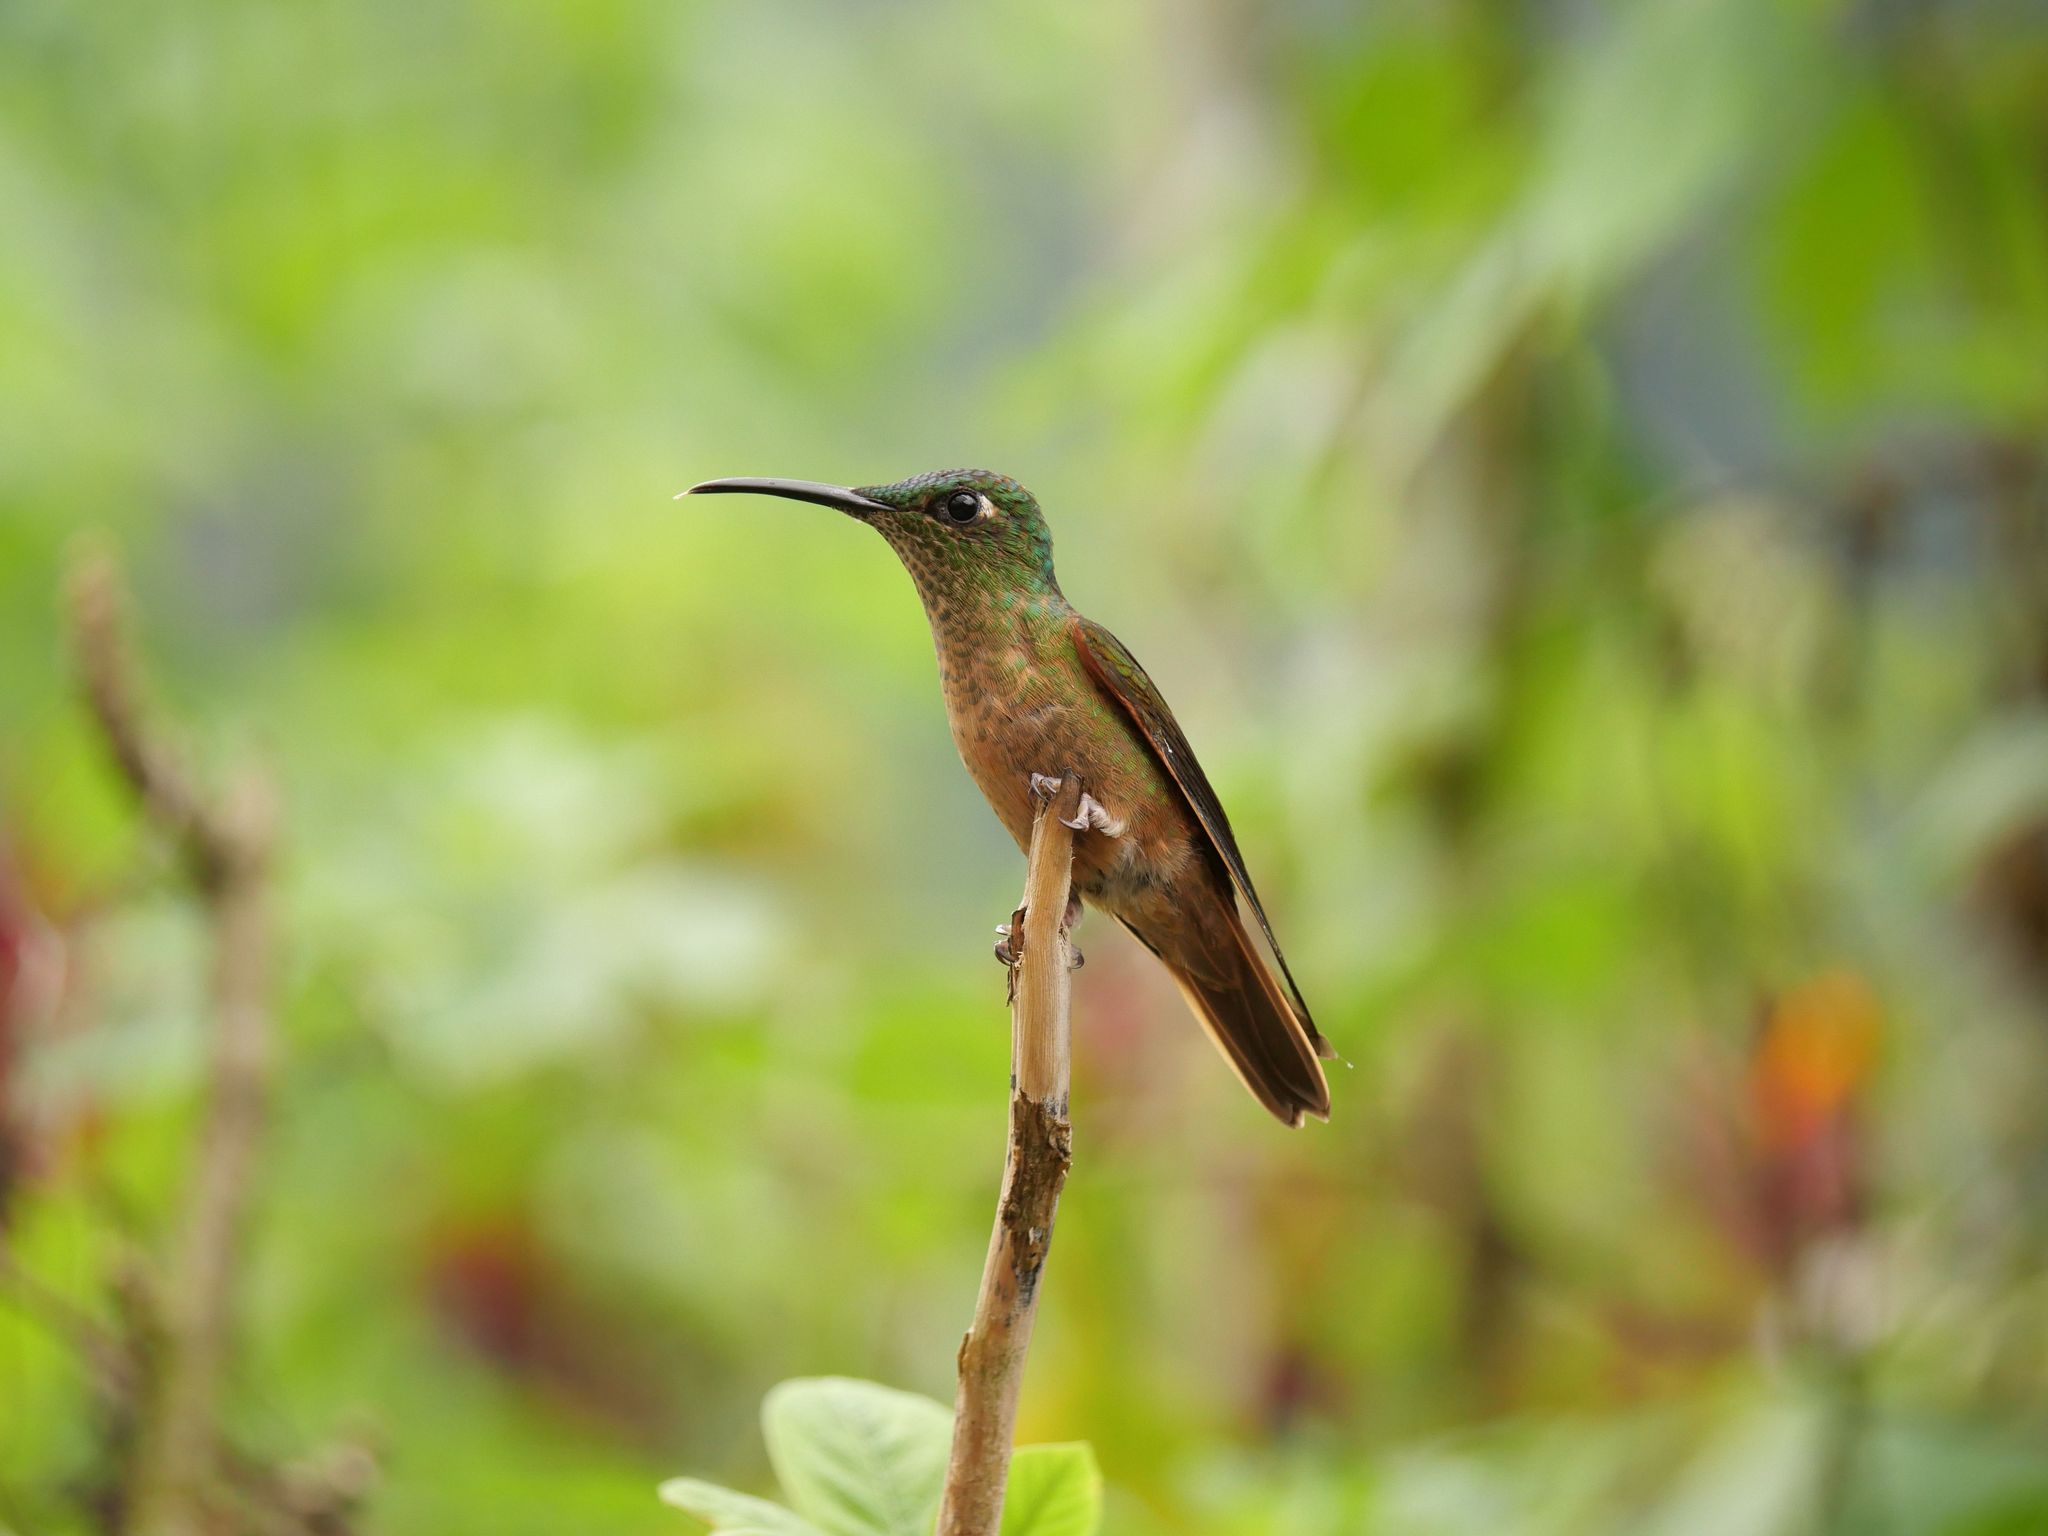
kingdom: Animalia
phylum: Chordata
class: Aves
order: Apodiformes
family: Trochilidae
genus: Heliodoxa
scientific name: Heliodoxa rubinoides
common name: Fawn-breasted brilliant
